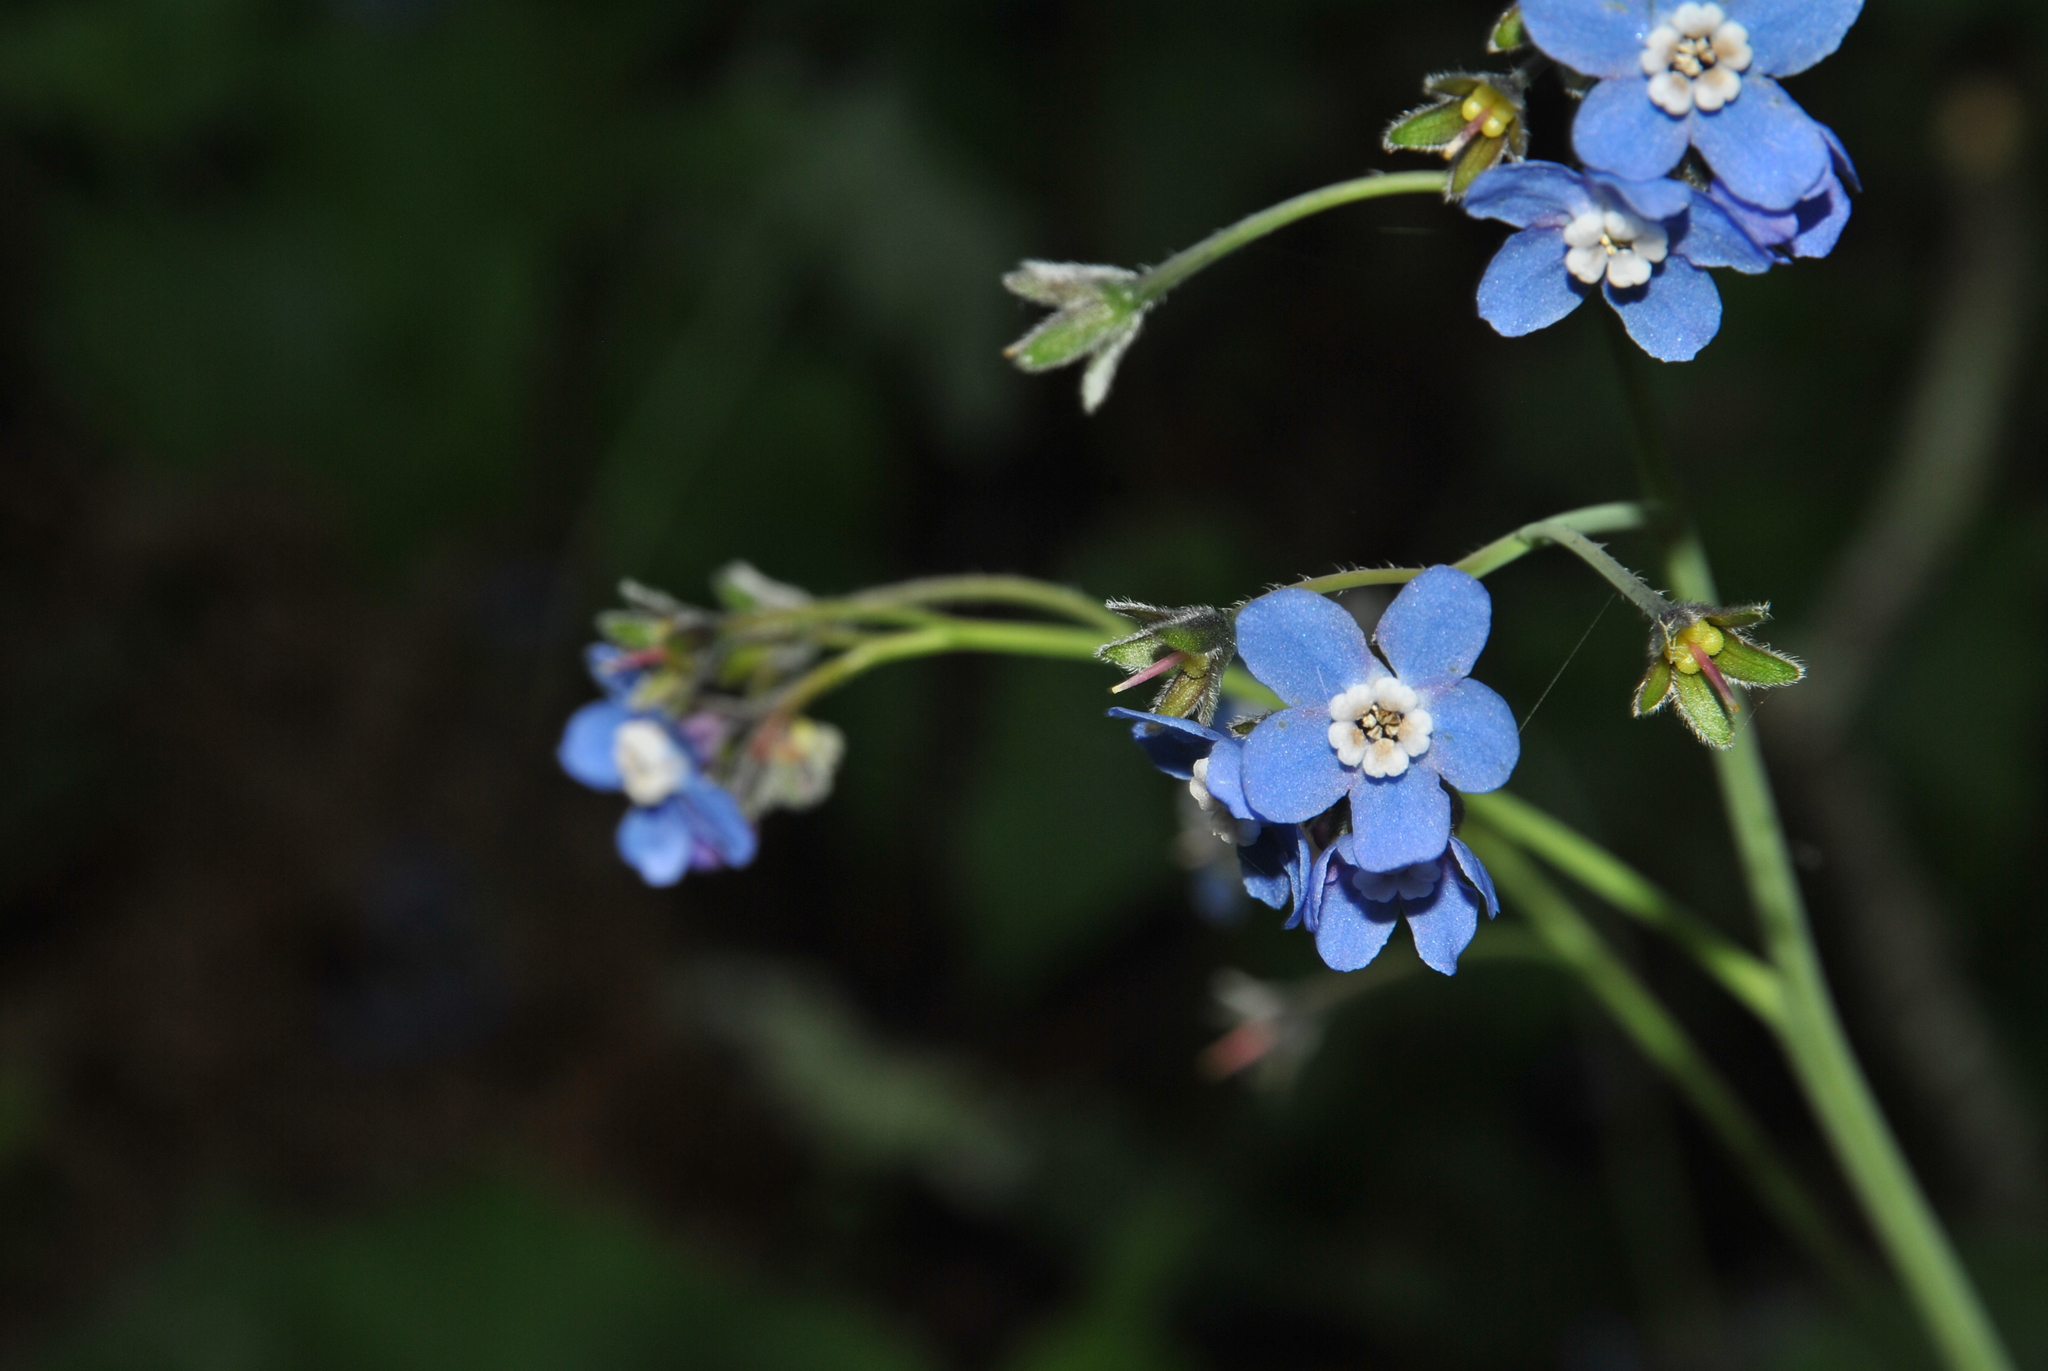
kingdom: Plantae
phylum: Tracheophyta
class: Magnoliopsida
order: Boraginales
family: Boraginaceae
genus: Adelinia
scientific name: Adelinia grande
